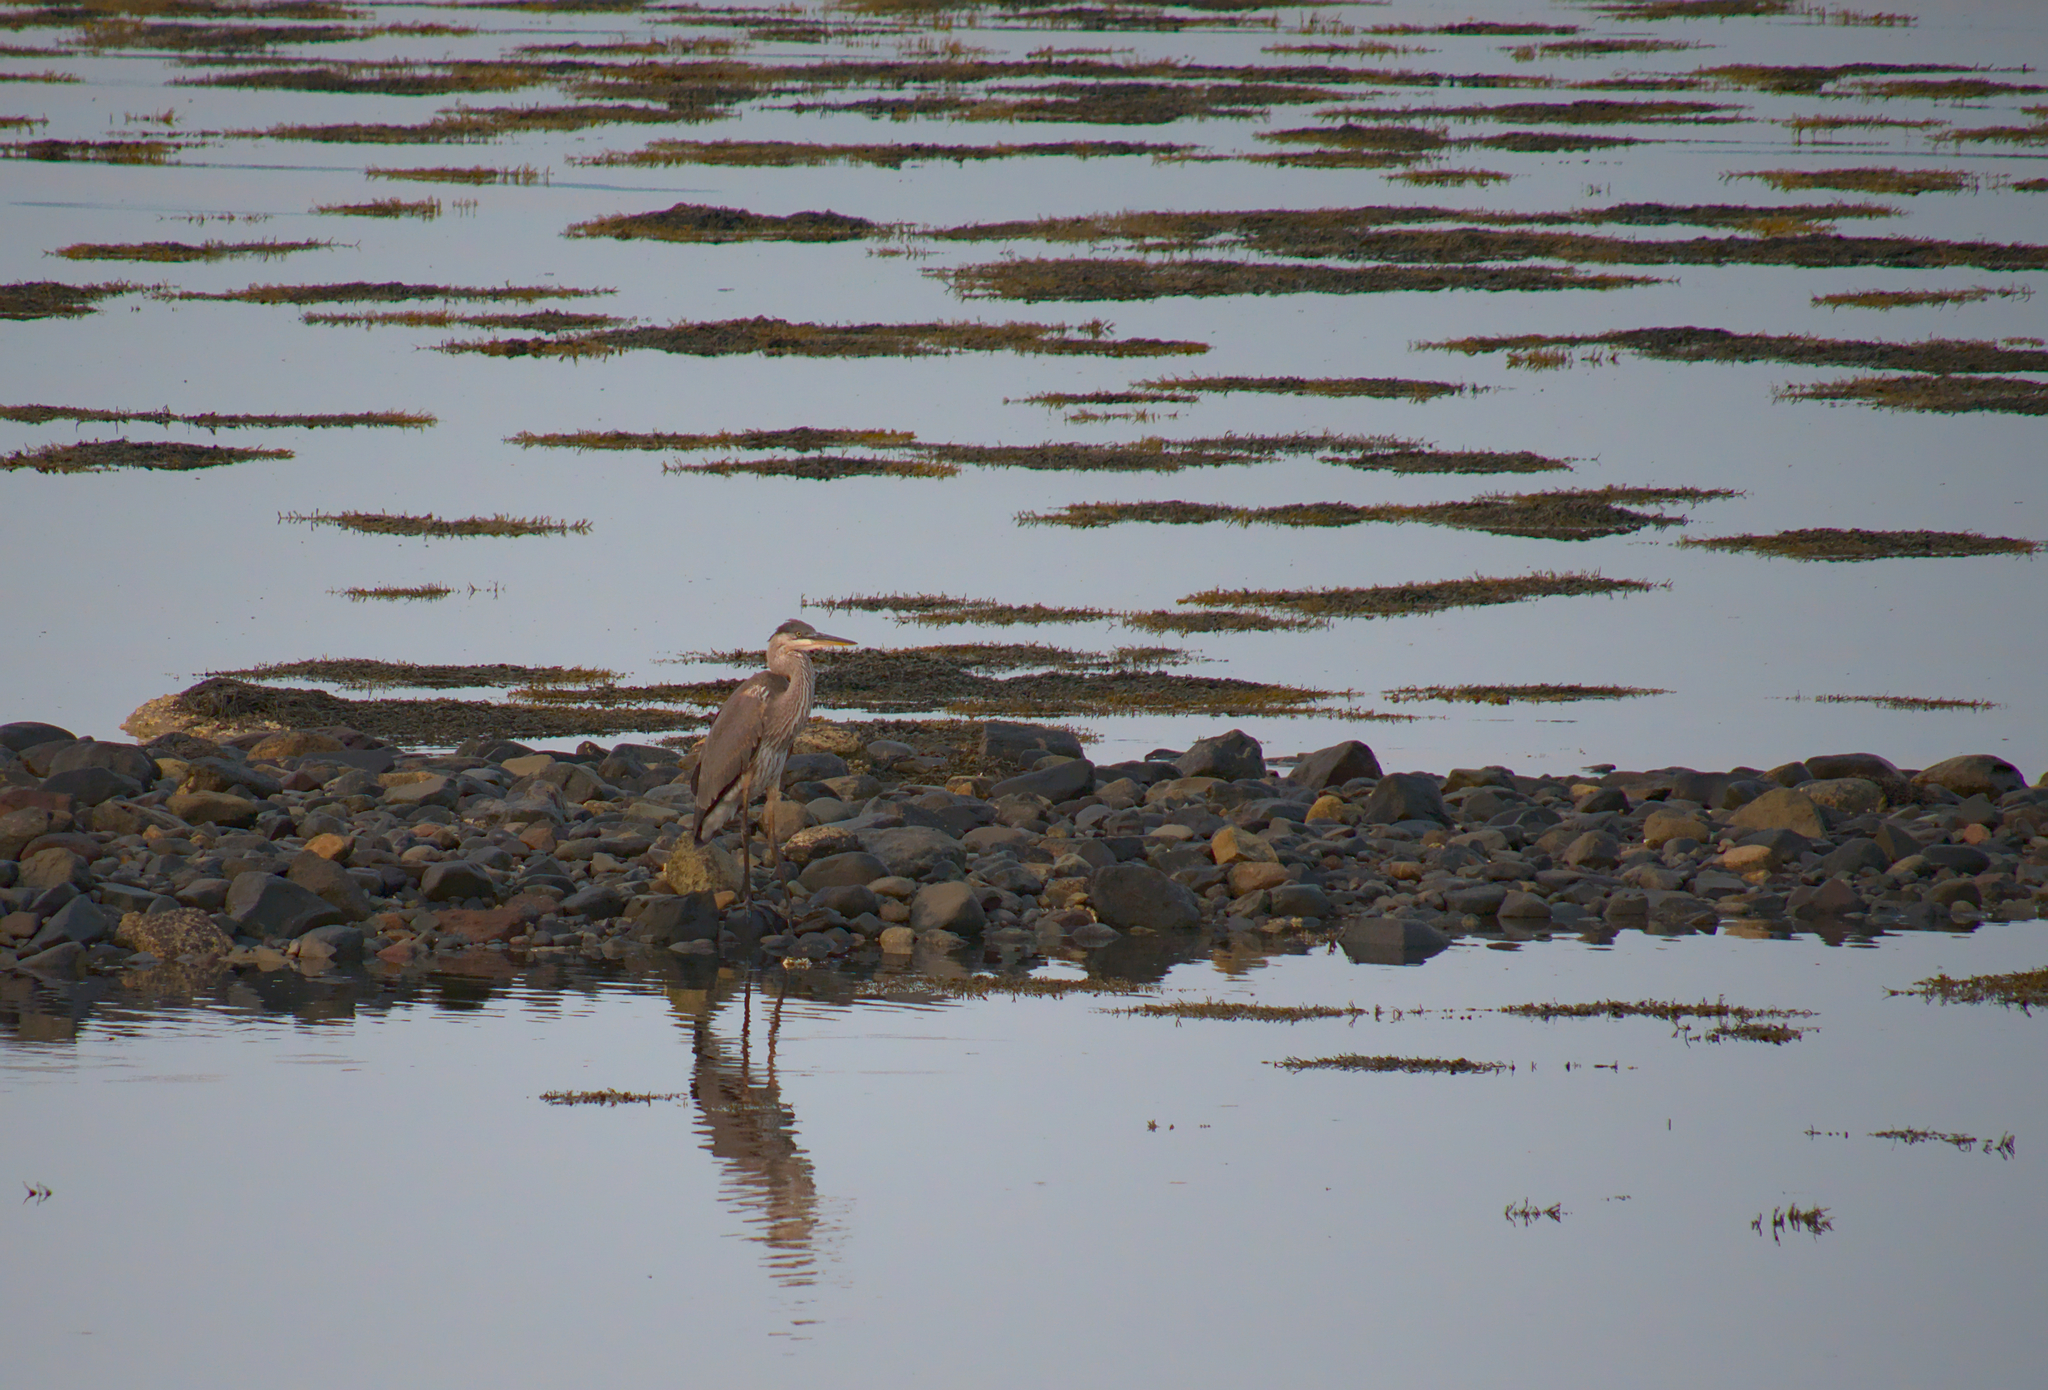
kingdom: Animalia
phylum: Chordata
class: Aves
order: Pelecaniformes
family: Ardeidae
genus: Ardea
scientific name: Ardea herodias
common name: Great blue heron
